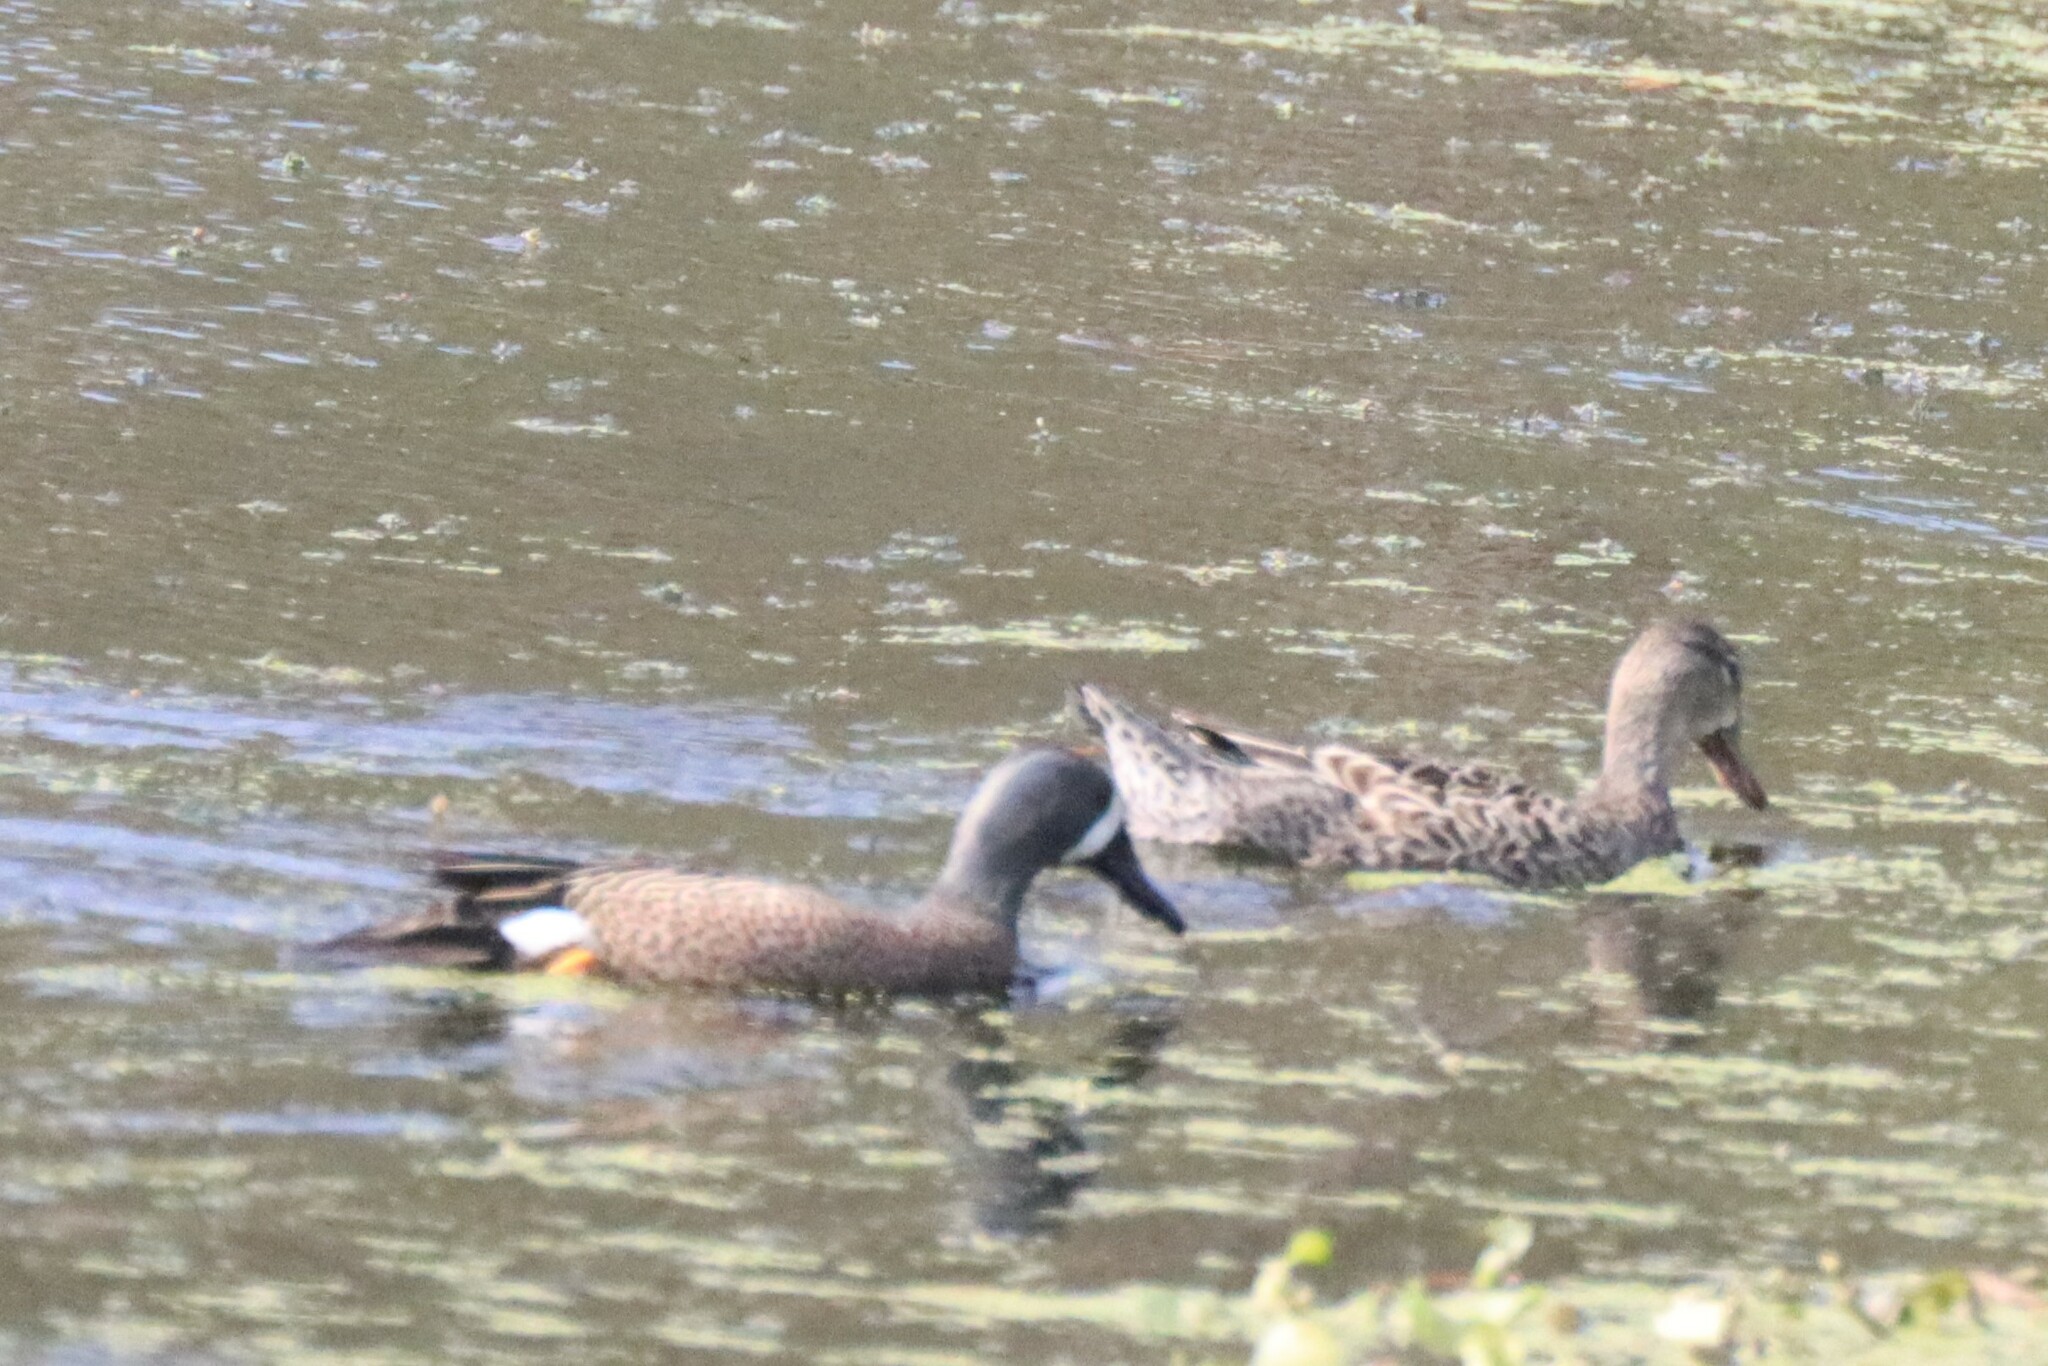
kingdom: Animalia
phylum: Chordata
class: Aves
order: Anseriformes
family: Anatidae
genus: Spatula
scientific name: Spatula discors
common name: Blue-winged teal
